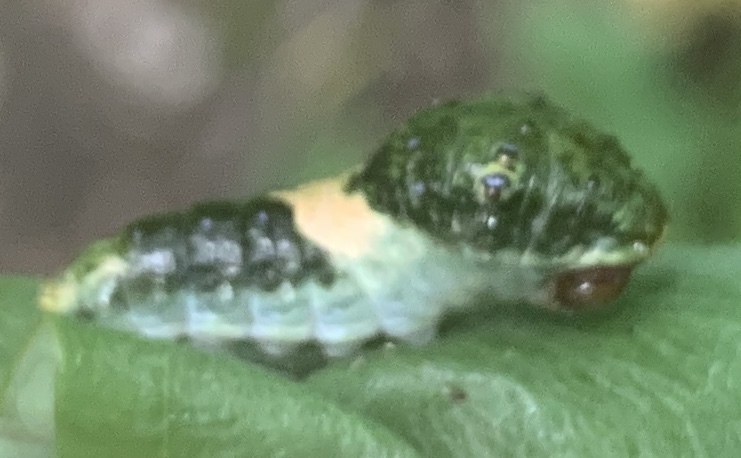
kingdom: Animalia
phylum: Arthropoda
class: Insecta
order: Lepidoptera
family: Papilionidae
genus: Papilio
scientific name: Papilio glaucus
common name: Tiger swallowtail
